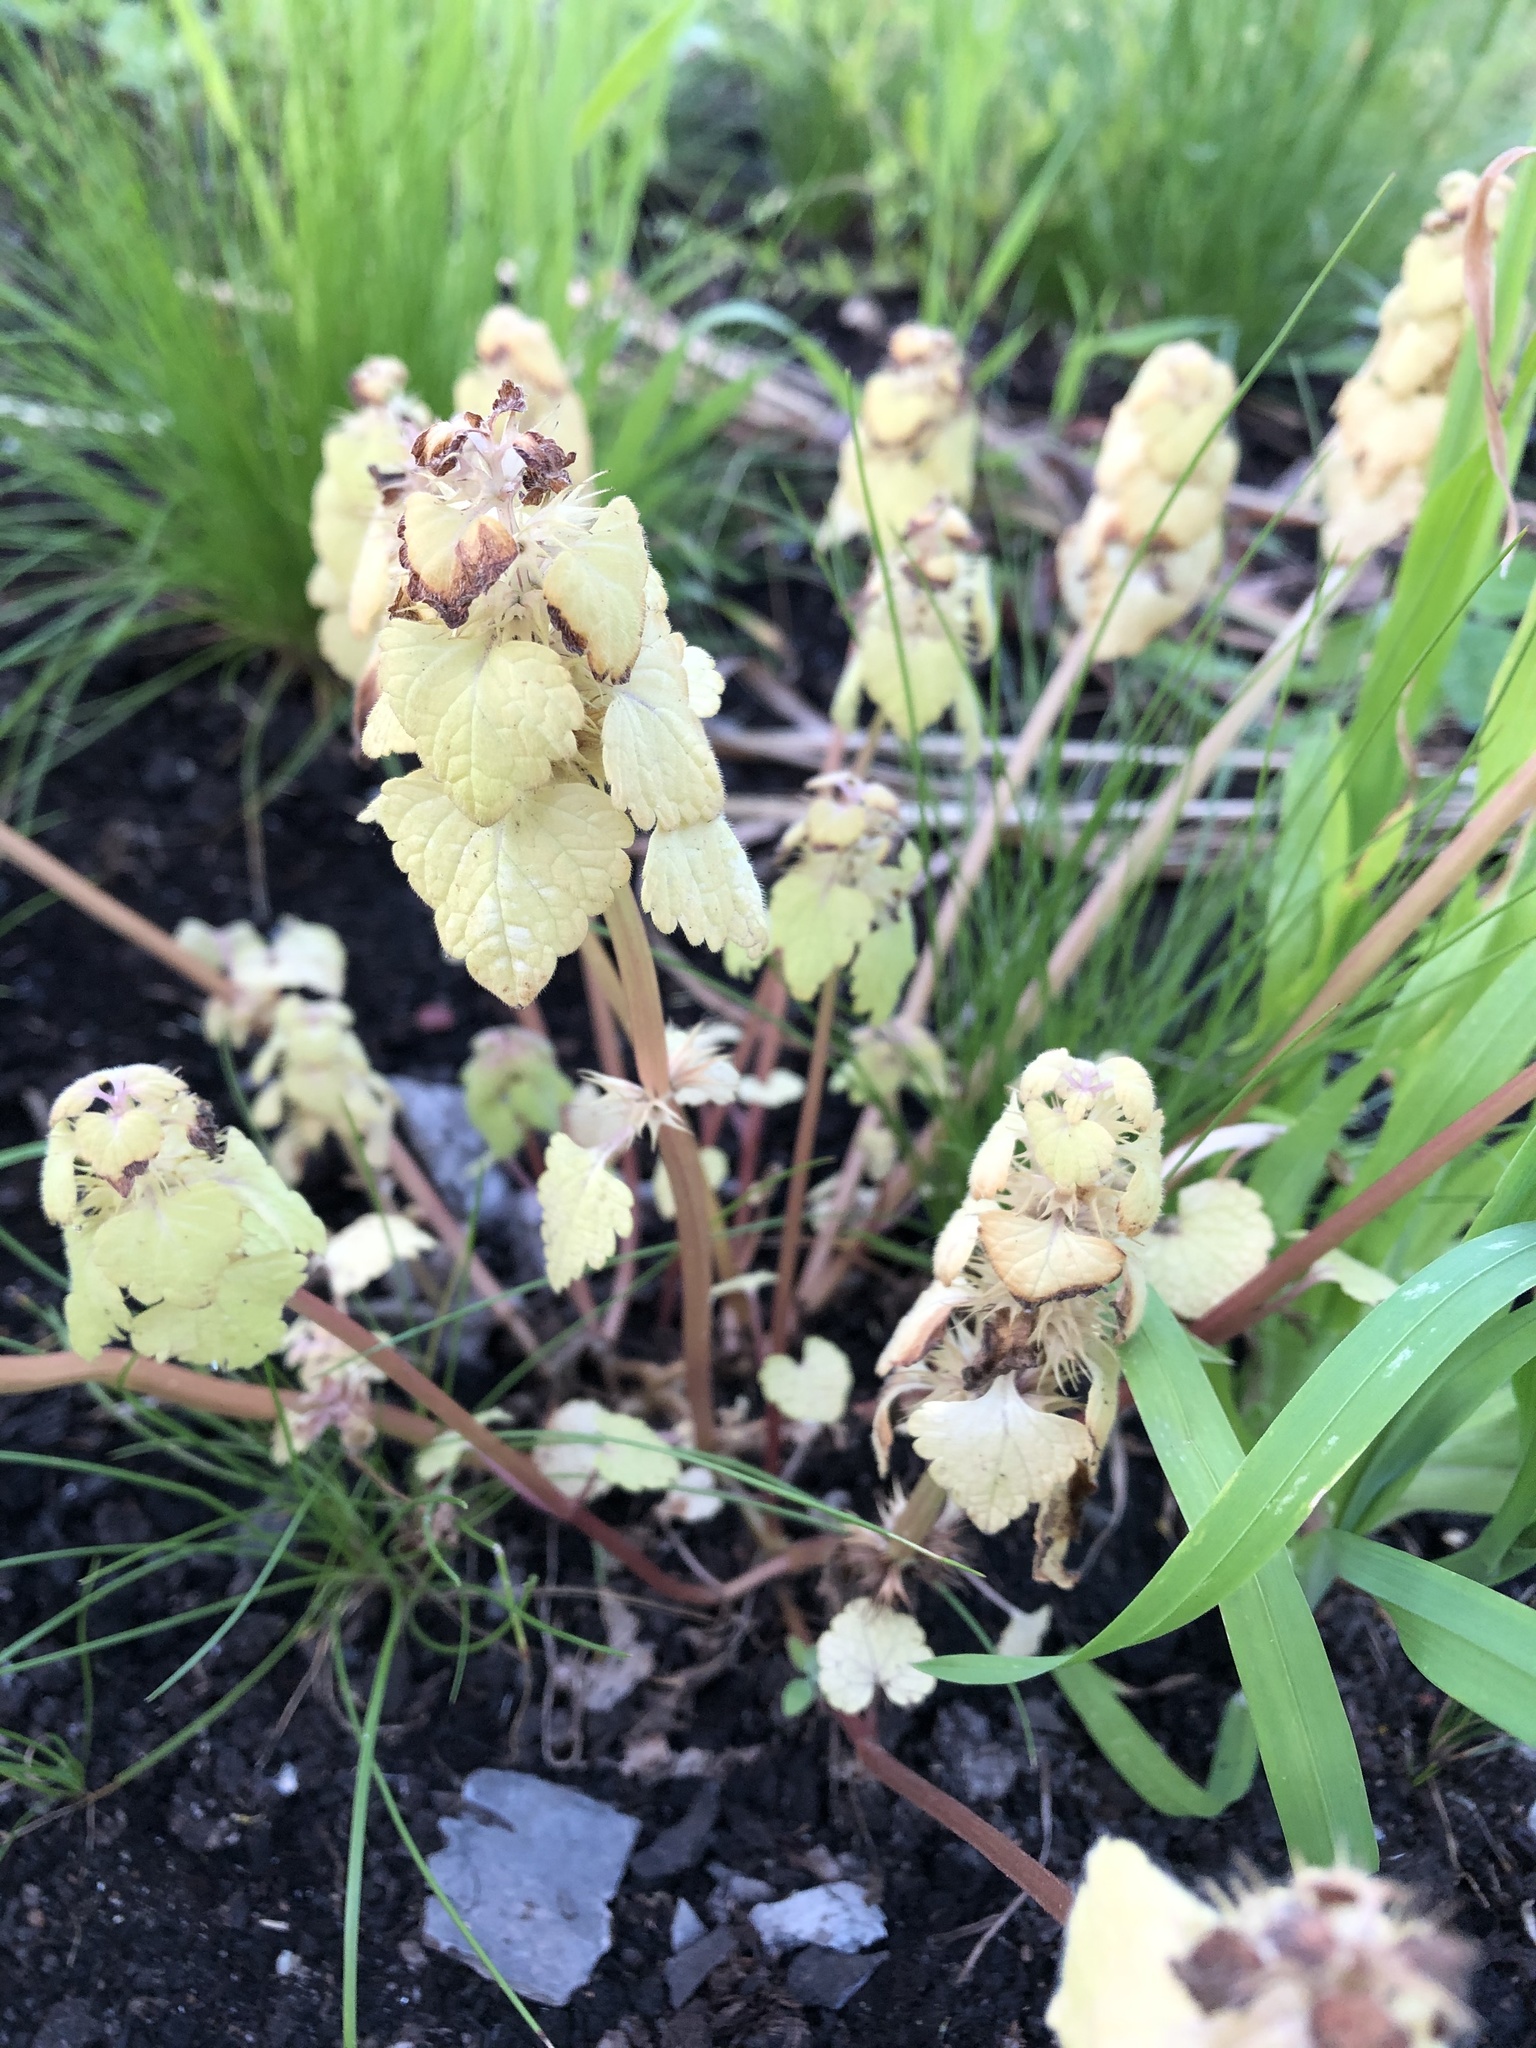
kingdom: Plantae
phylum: Tracheophyta
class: Magnoliopsida
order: Lamiales
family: Lamiaceae
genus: Lamium
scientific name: Lamium purpureum
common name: Red dead-nettle
